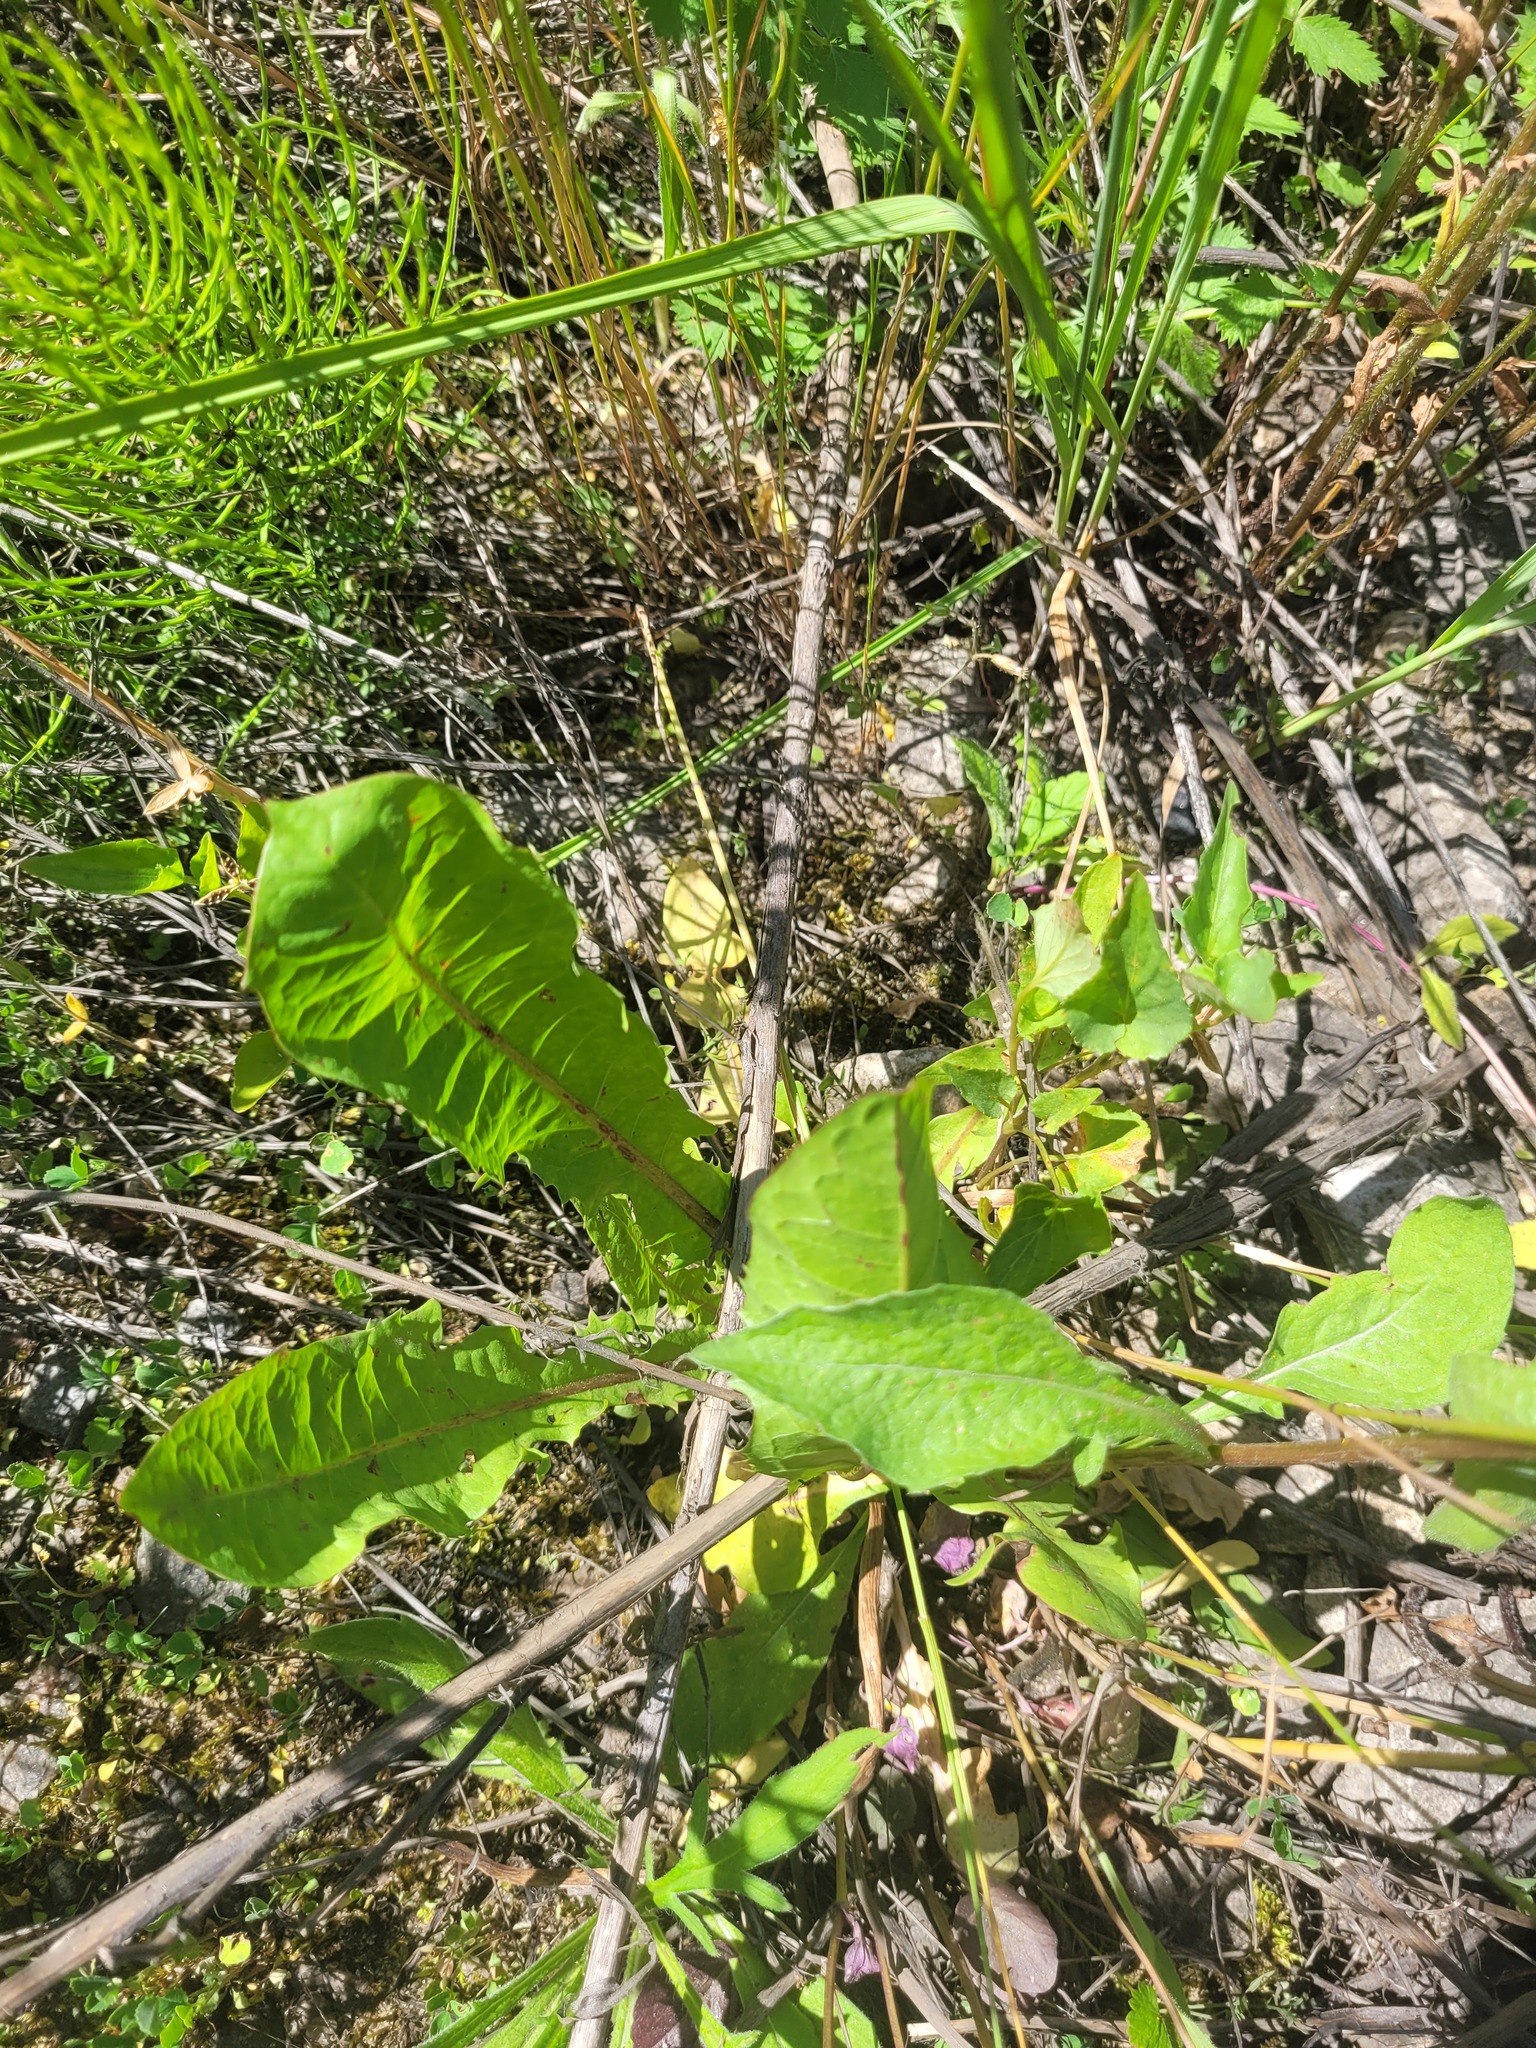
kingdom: Plantae
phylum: Tracheophyta
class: Magnoliopsida
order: Asterales
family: Asteraceae
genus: Taraxacum
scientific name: Taraxacum officinale
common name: Common dandelion
